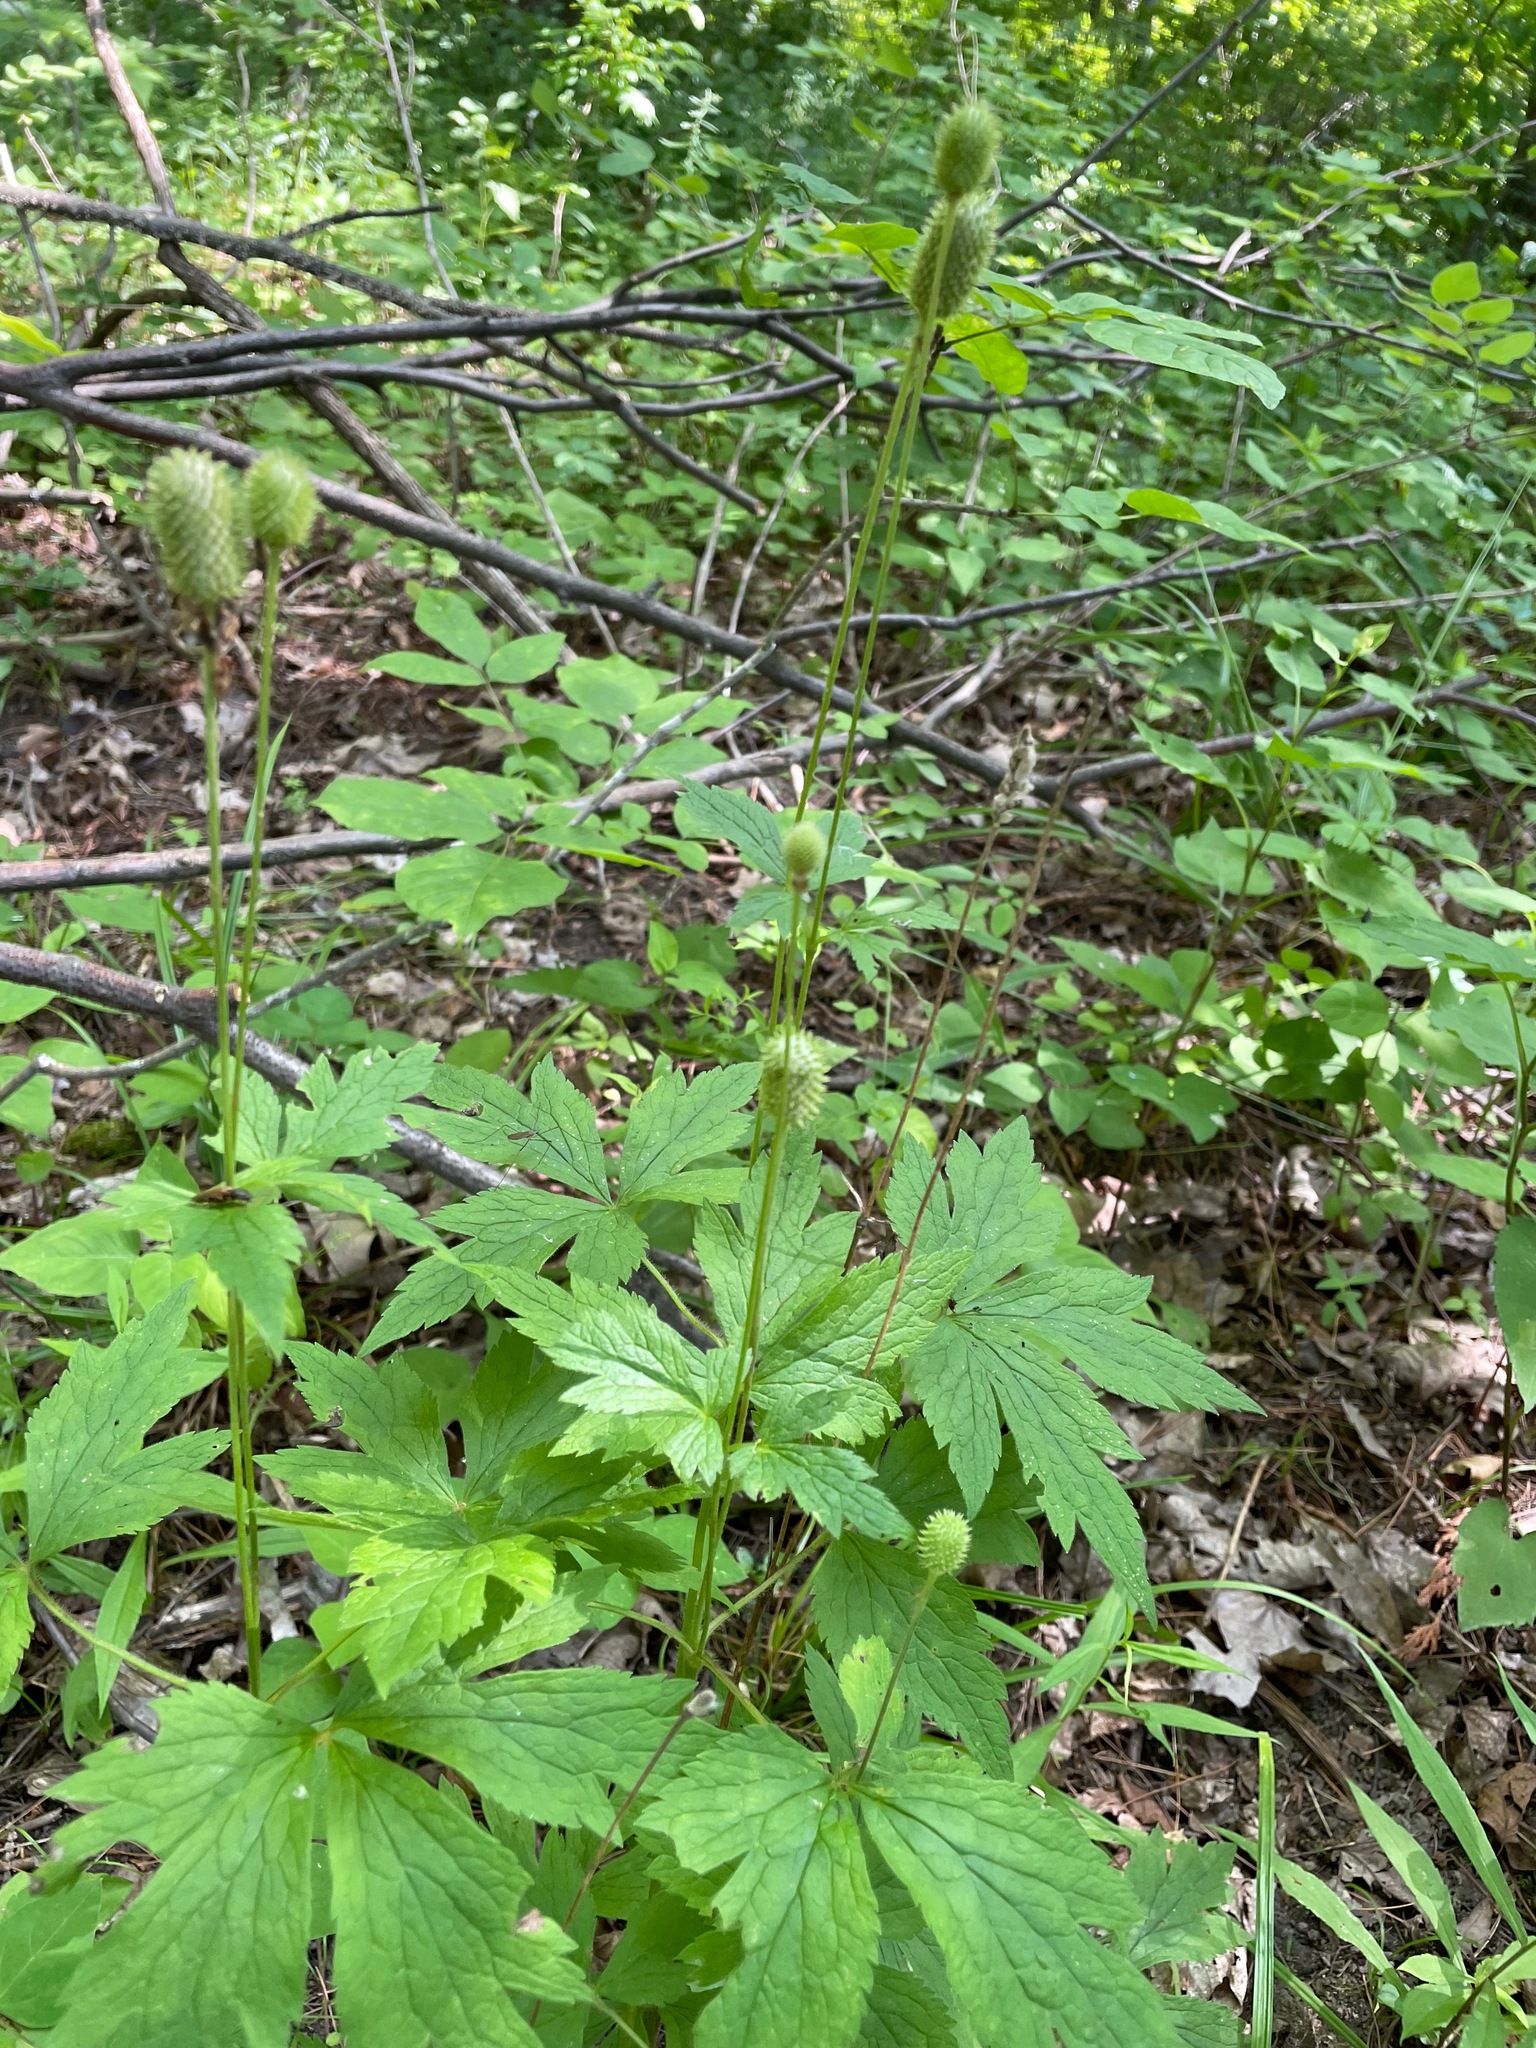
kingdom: Plantae
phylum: Tracheophyta
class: Magnoliopsida
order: Ranunculales
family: Ranunculaceae
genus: Anemone
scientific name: Anemone virginiana
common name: Tall anemone
